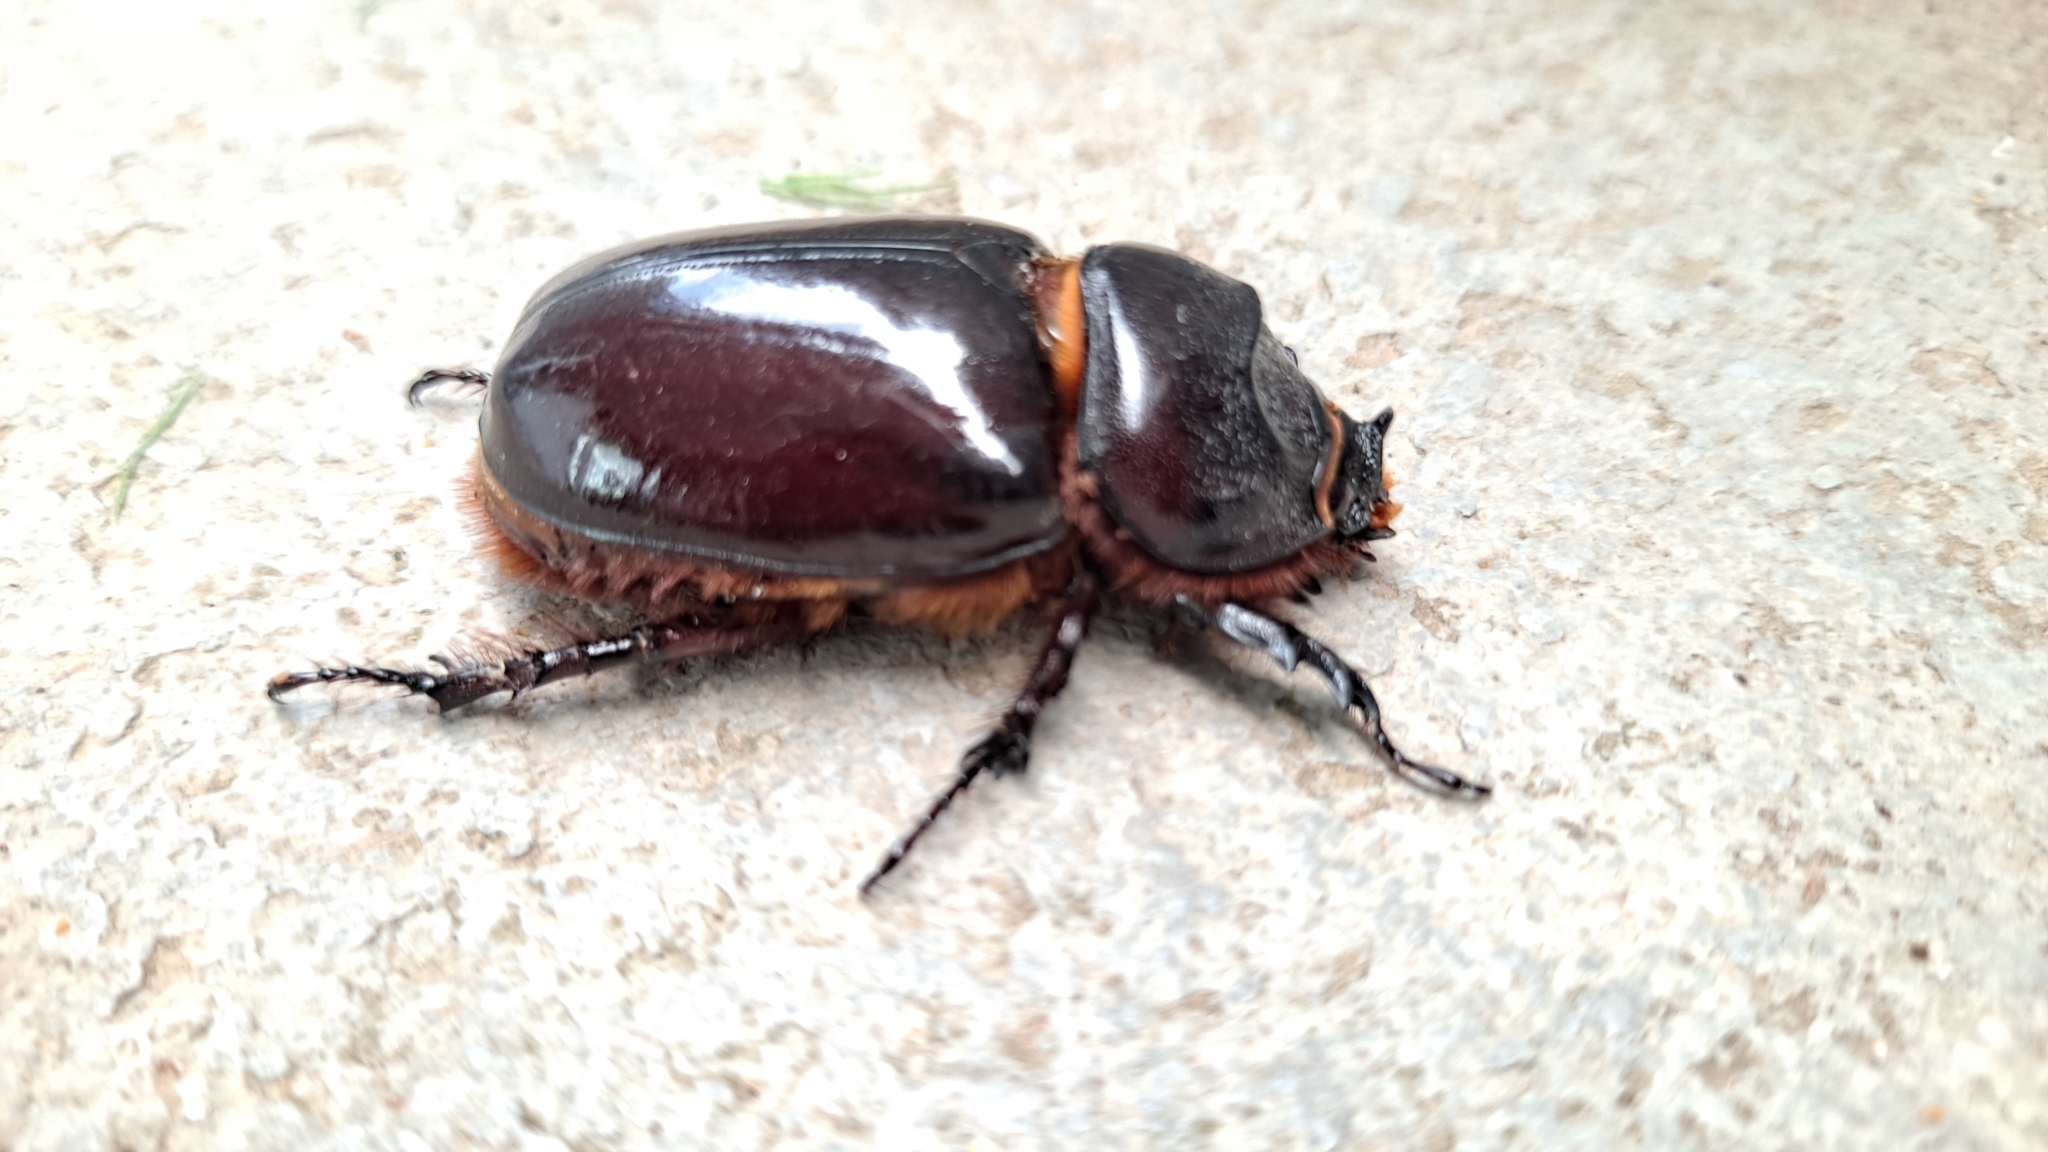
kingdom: Animalia
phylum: Arthropoda
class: Insecta
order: Coleoptera
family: Scarabaeidae
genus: Oryctes
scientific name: Oryctes nasicornis
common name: European rhinoceros beetle
